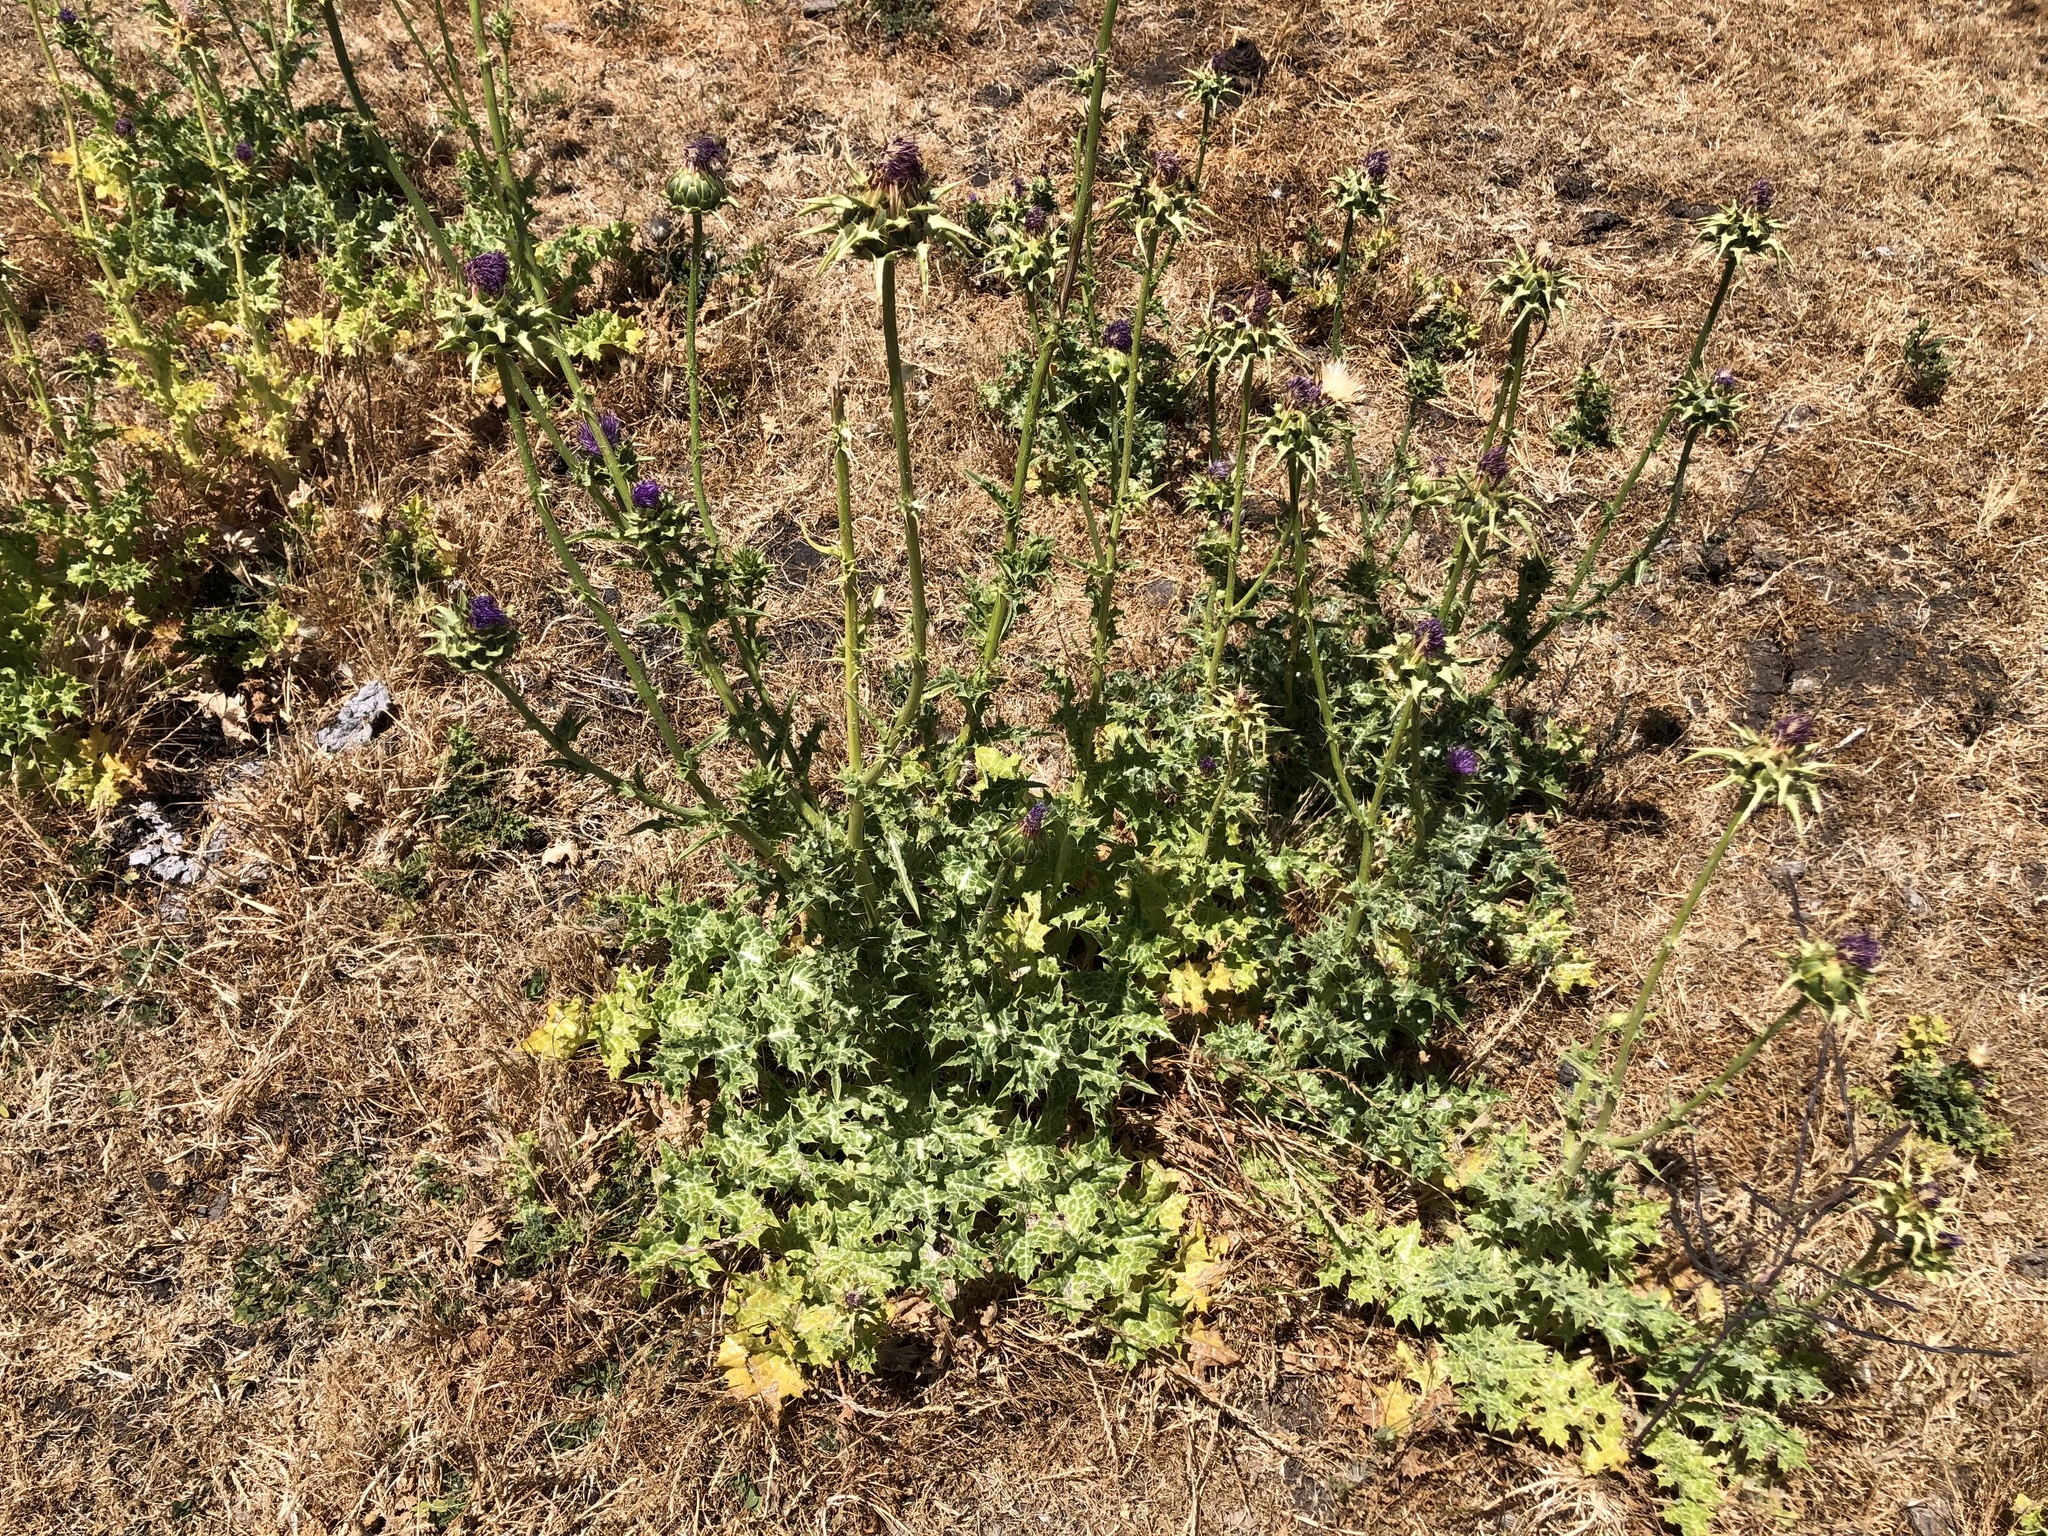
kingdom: Plantae
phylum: Tracheophyta
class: Magnoliopsida
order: Asterales
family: Asteraceae
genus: Silybum
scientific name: Silybum marianum
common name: Milk thistle
